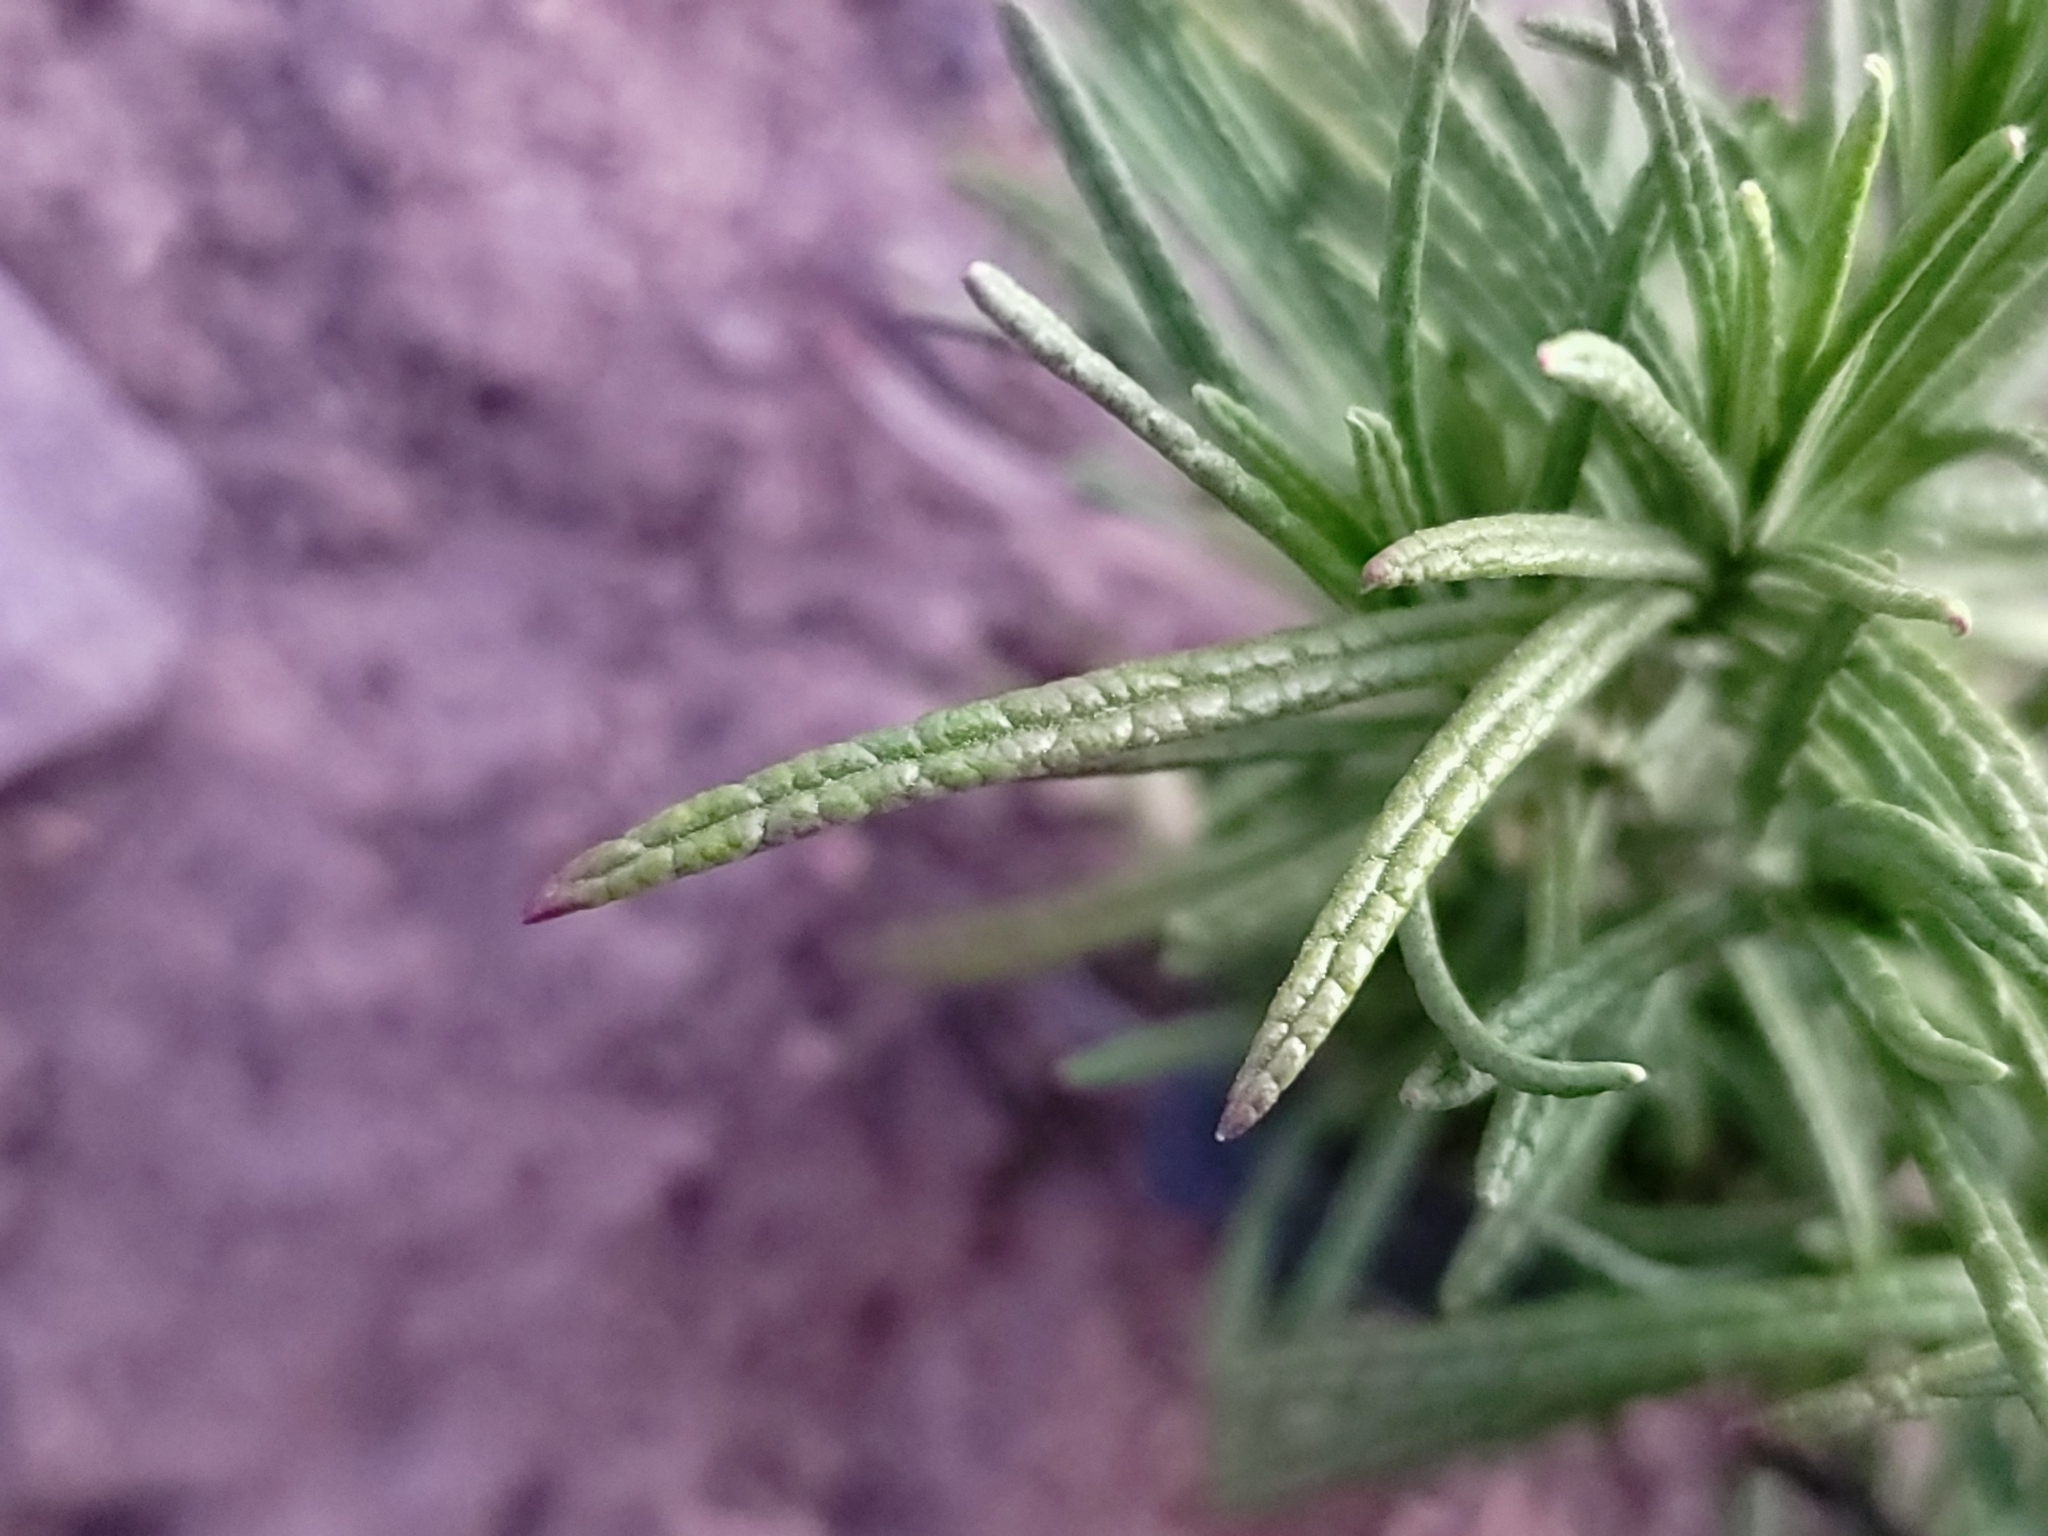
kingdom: Plantae
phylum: Tracheophyta
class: Magnoliopsida
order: Lamiales
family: Lamiaceae
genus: Trichostema
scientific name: Trichostema lanatum
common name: Woolly bluecurls
